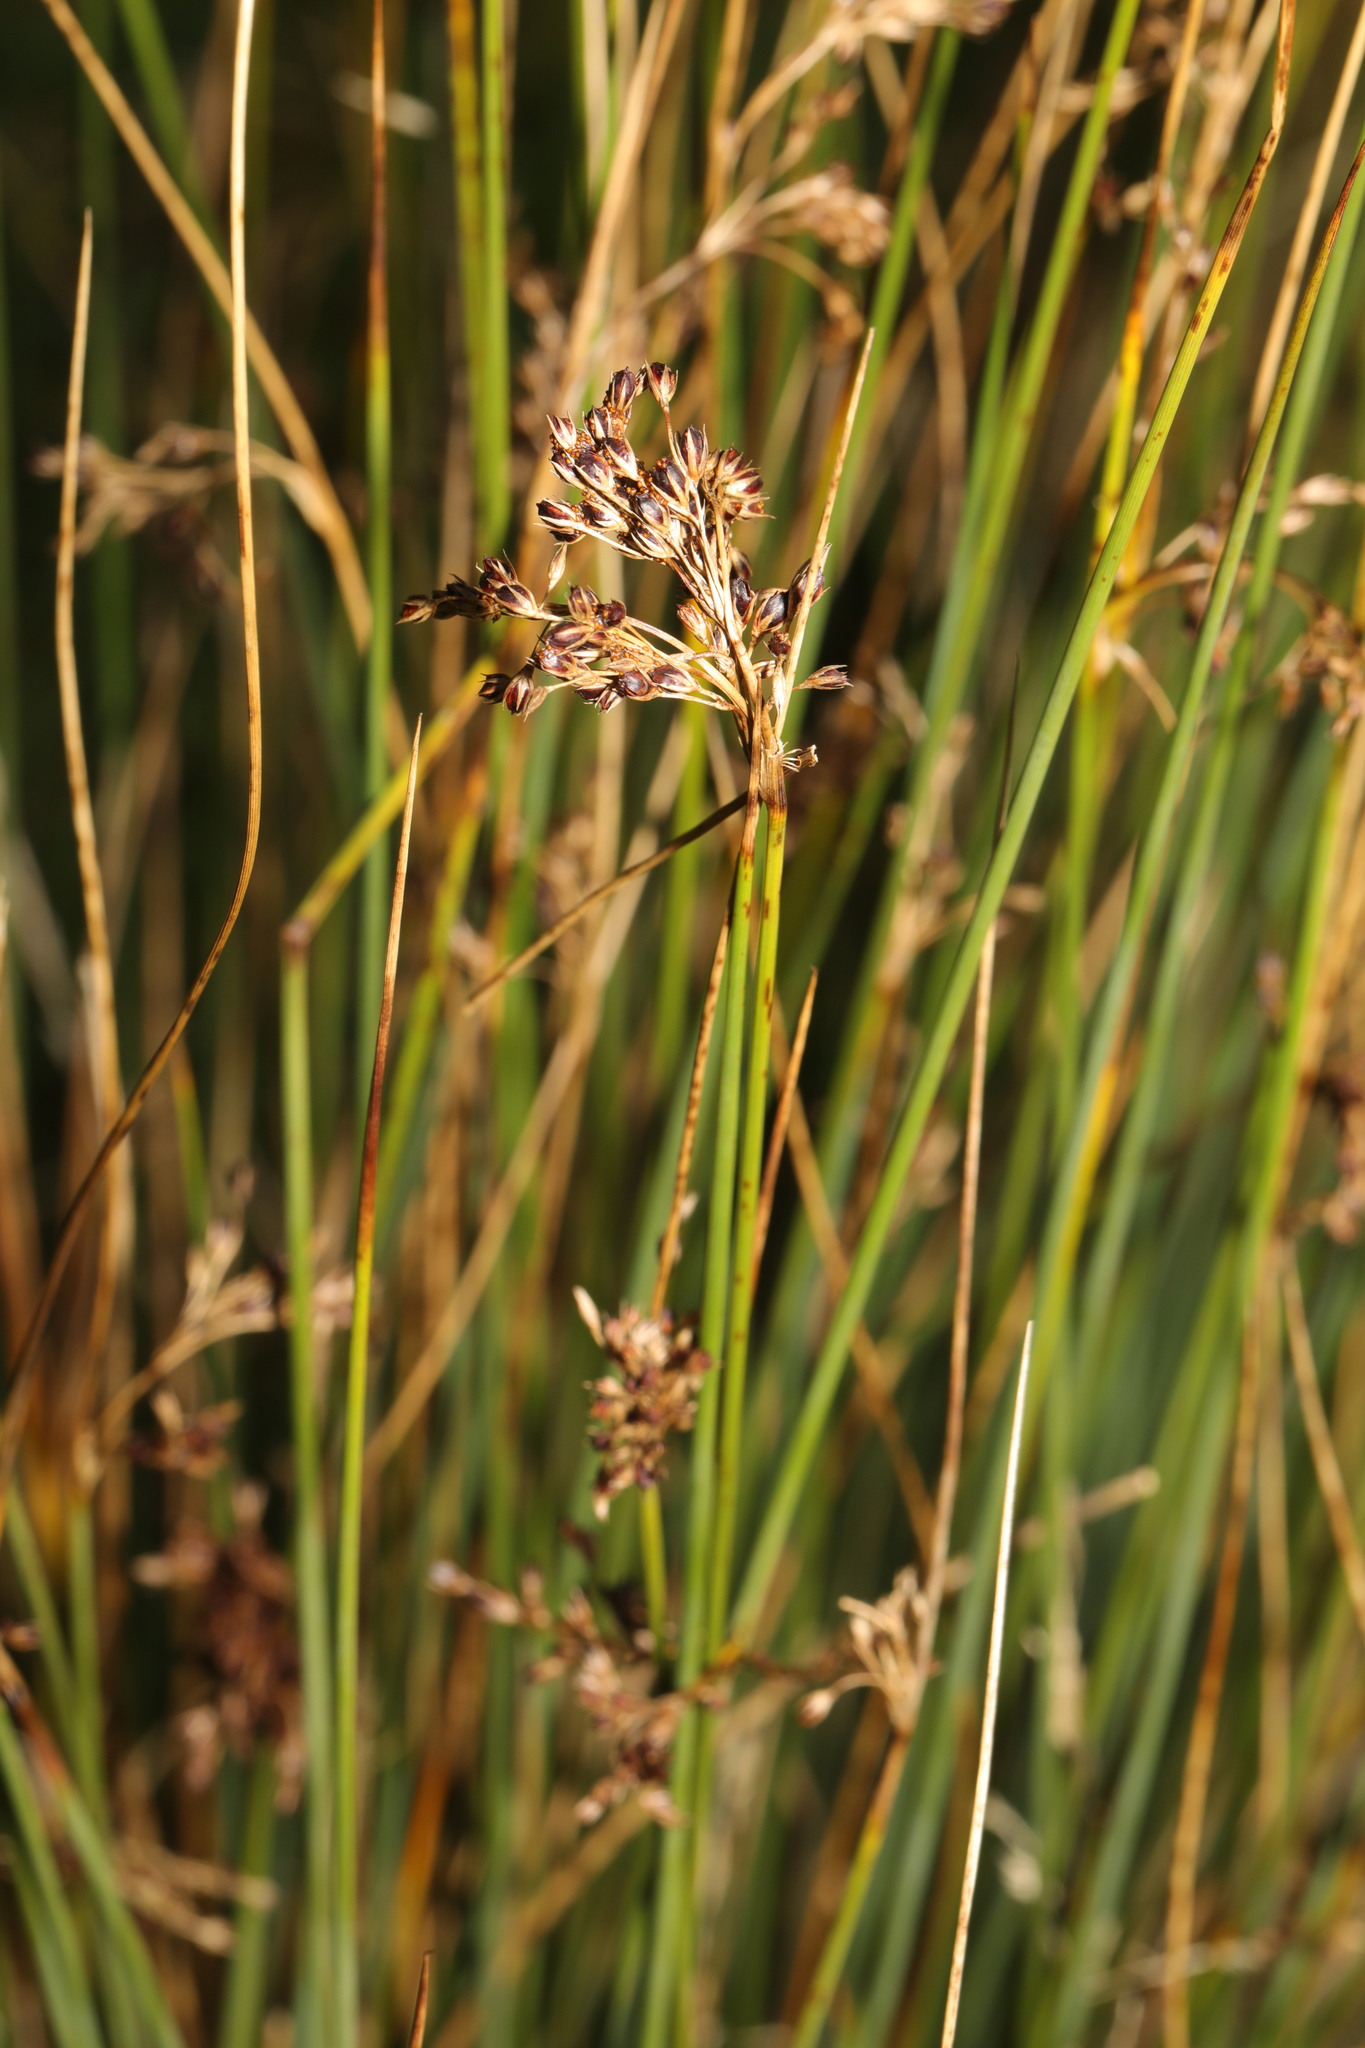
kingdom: Plantae
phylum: Tracheophyta
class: Liliopsida
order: Poales
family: Juncaceae
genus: Juncus
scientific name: Juncus effusus
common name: Soft rush
